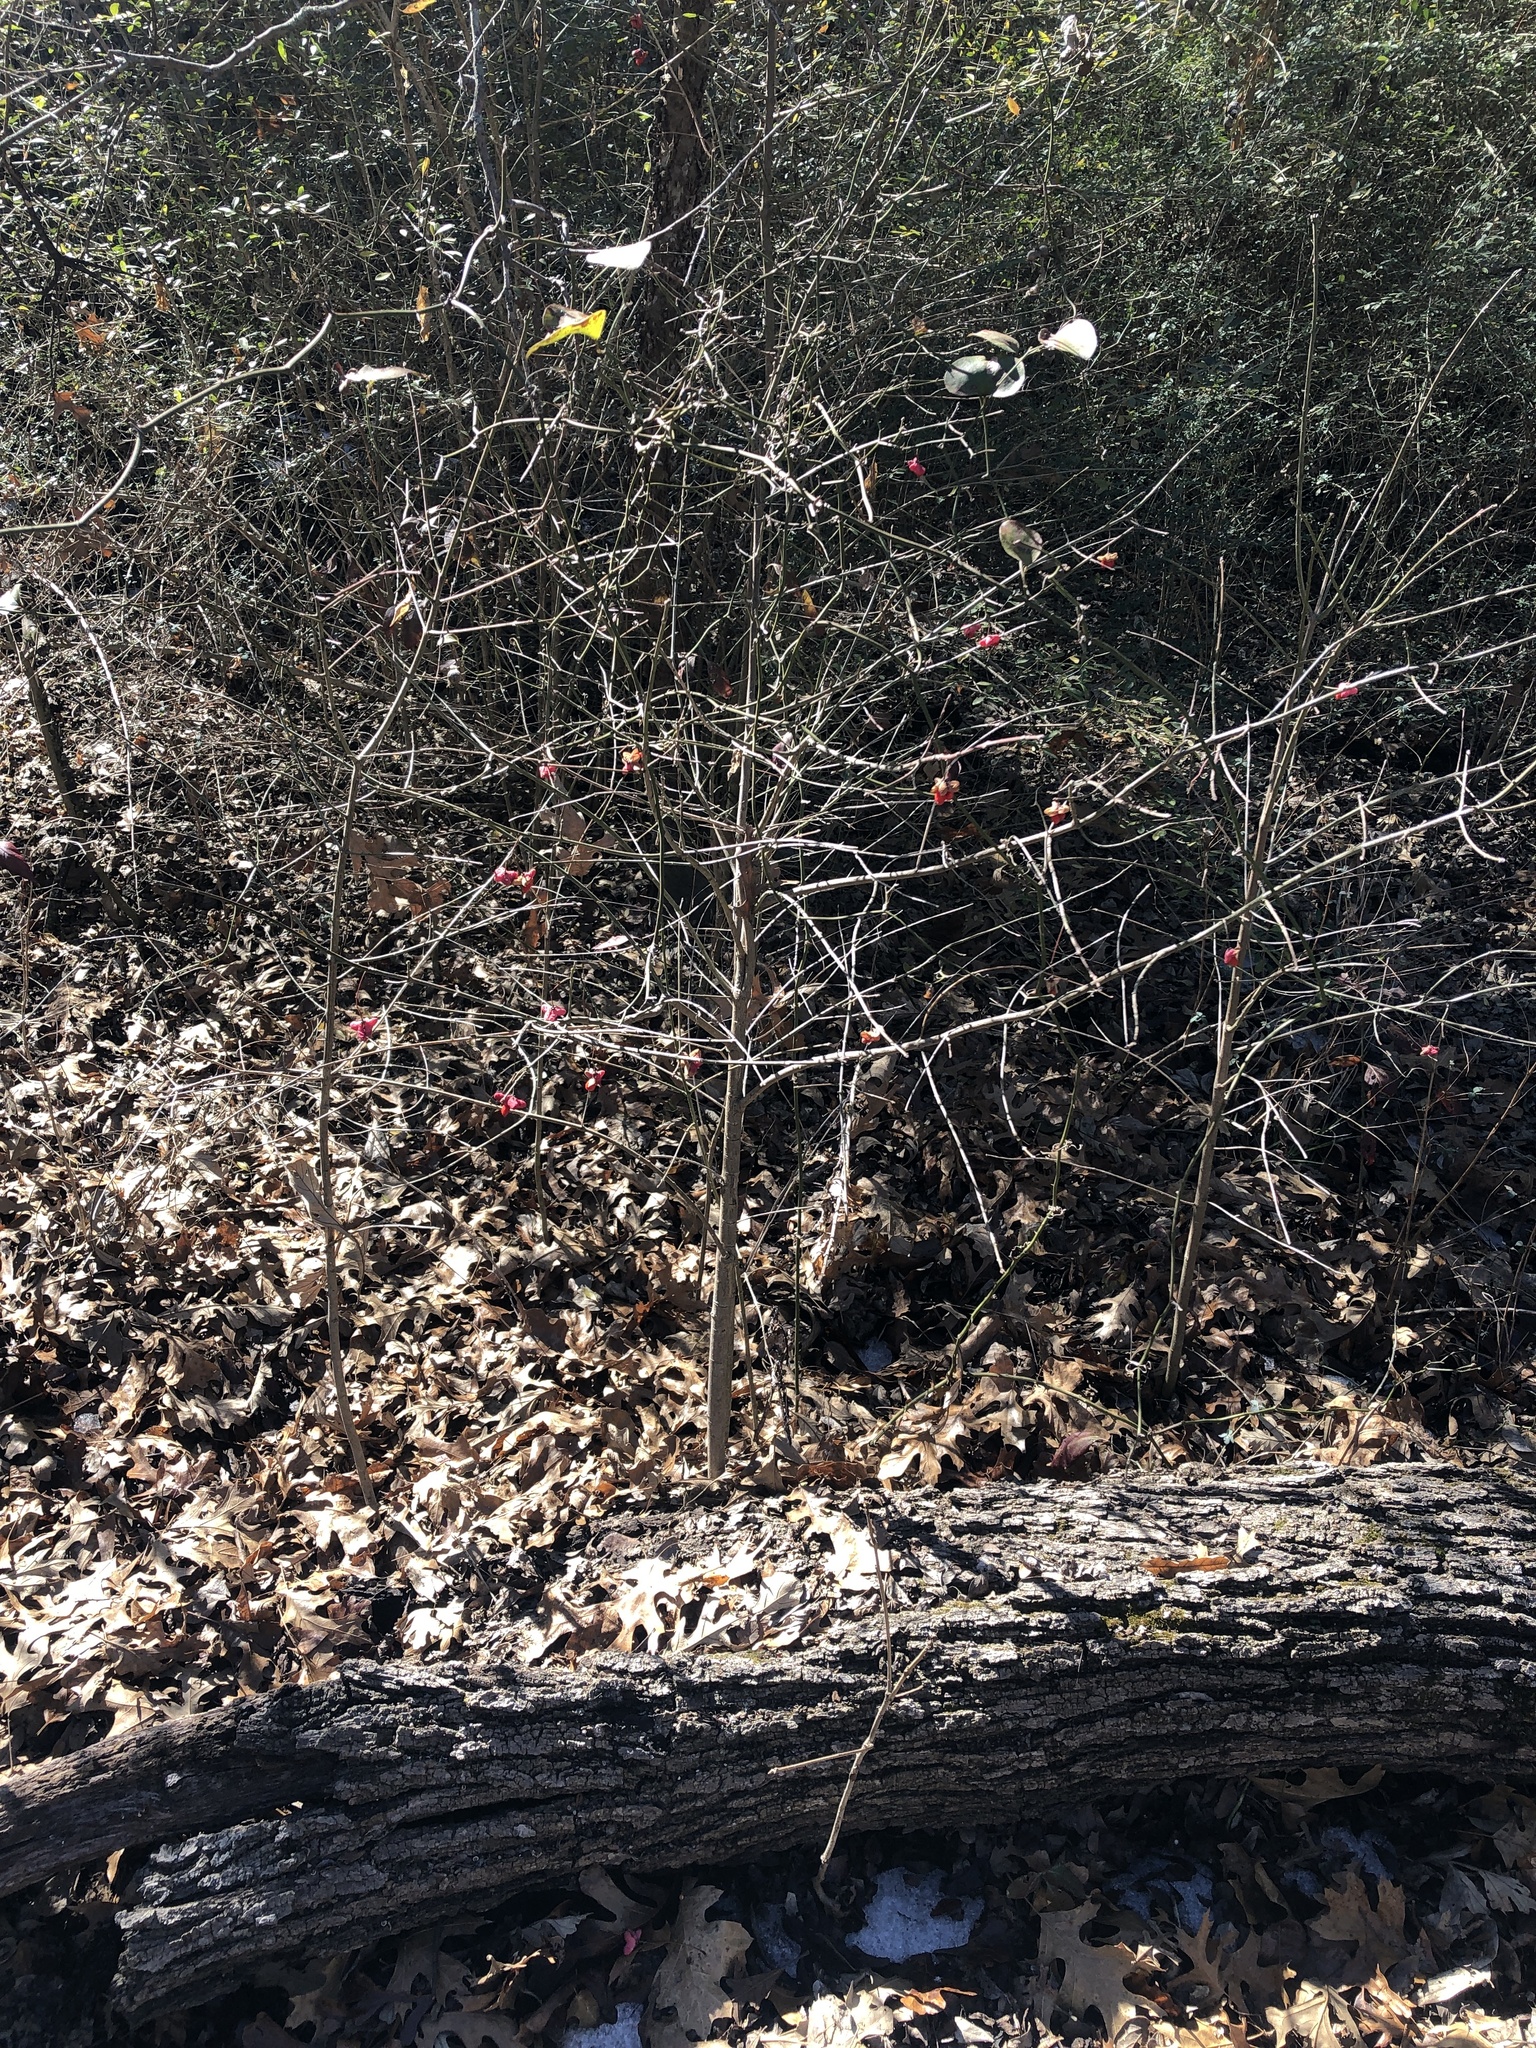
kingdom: Plantae
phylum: Tracheophyta
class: Magnoliopsida
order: Celastrales
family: Celastraceae
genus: Euonymus
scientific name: Euonymus atropurpureus
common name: Eastern wahoo
